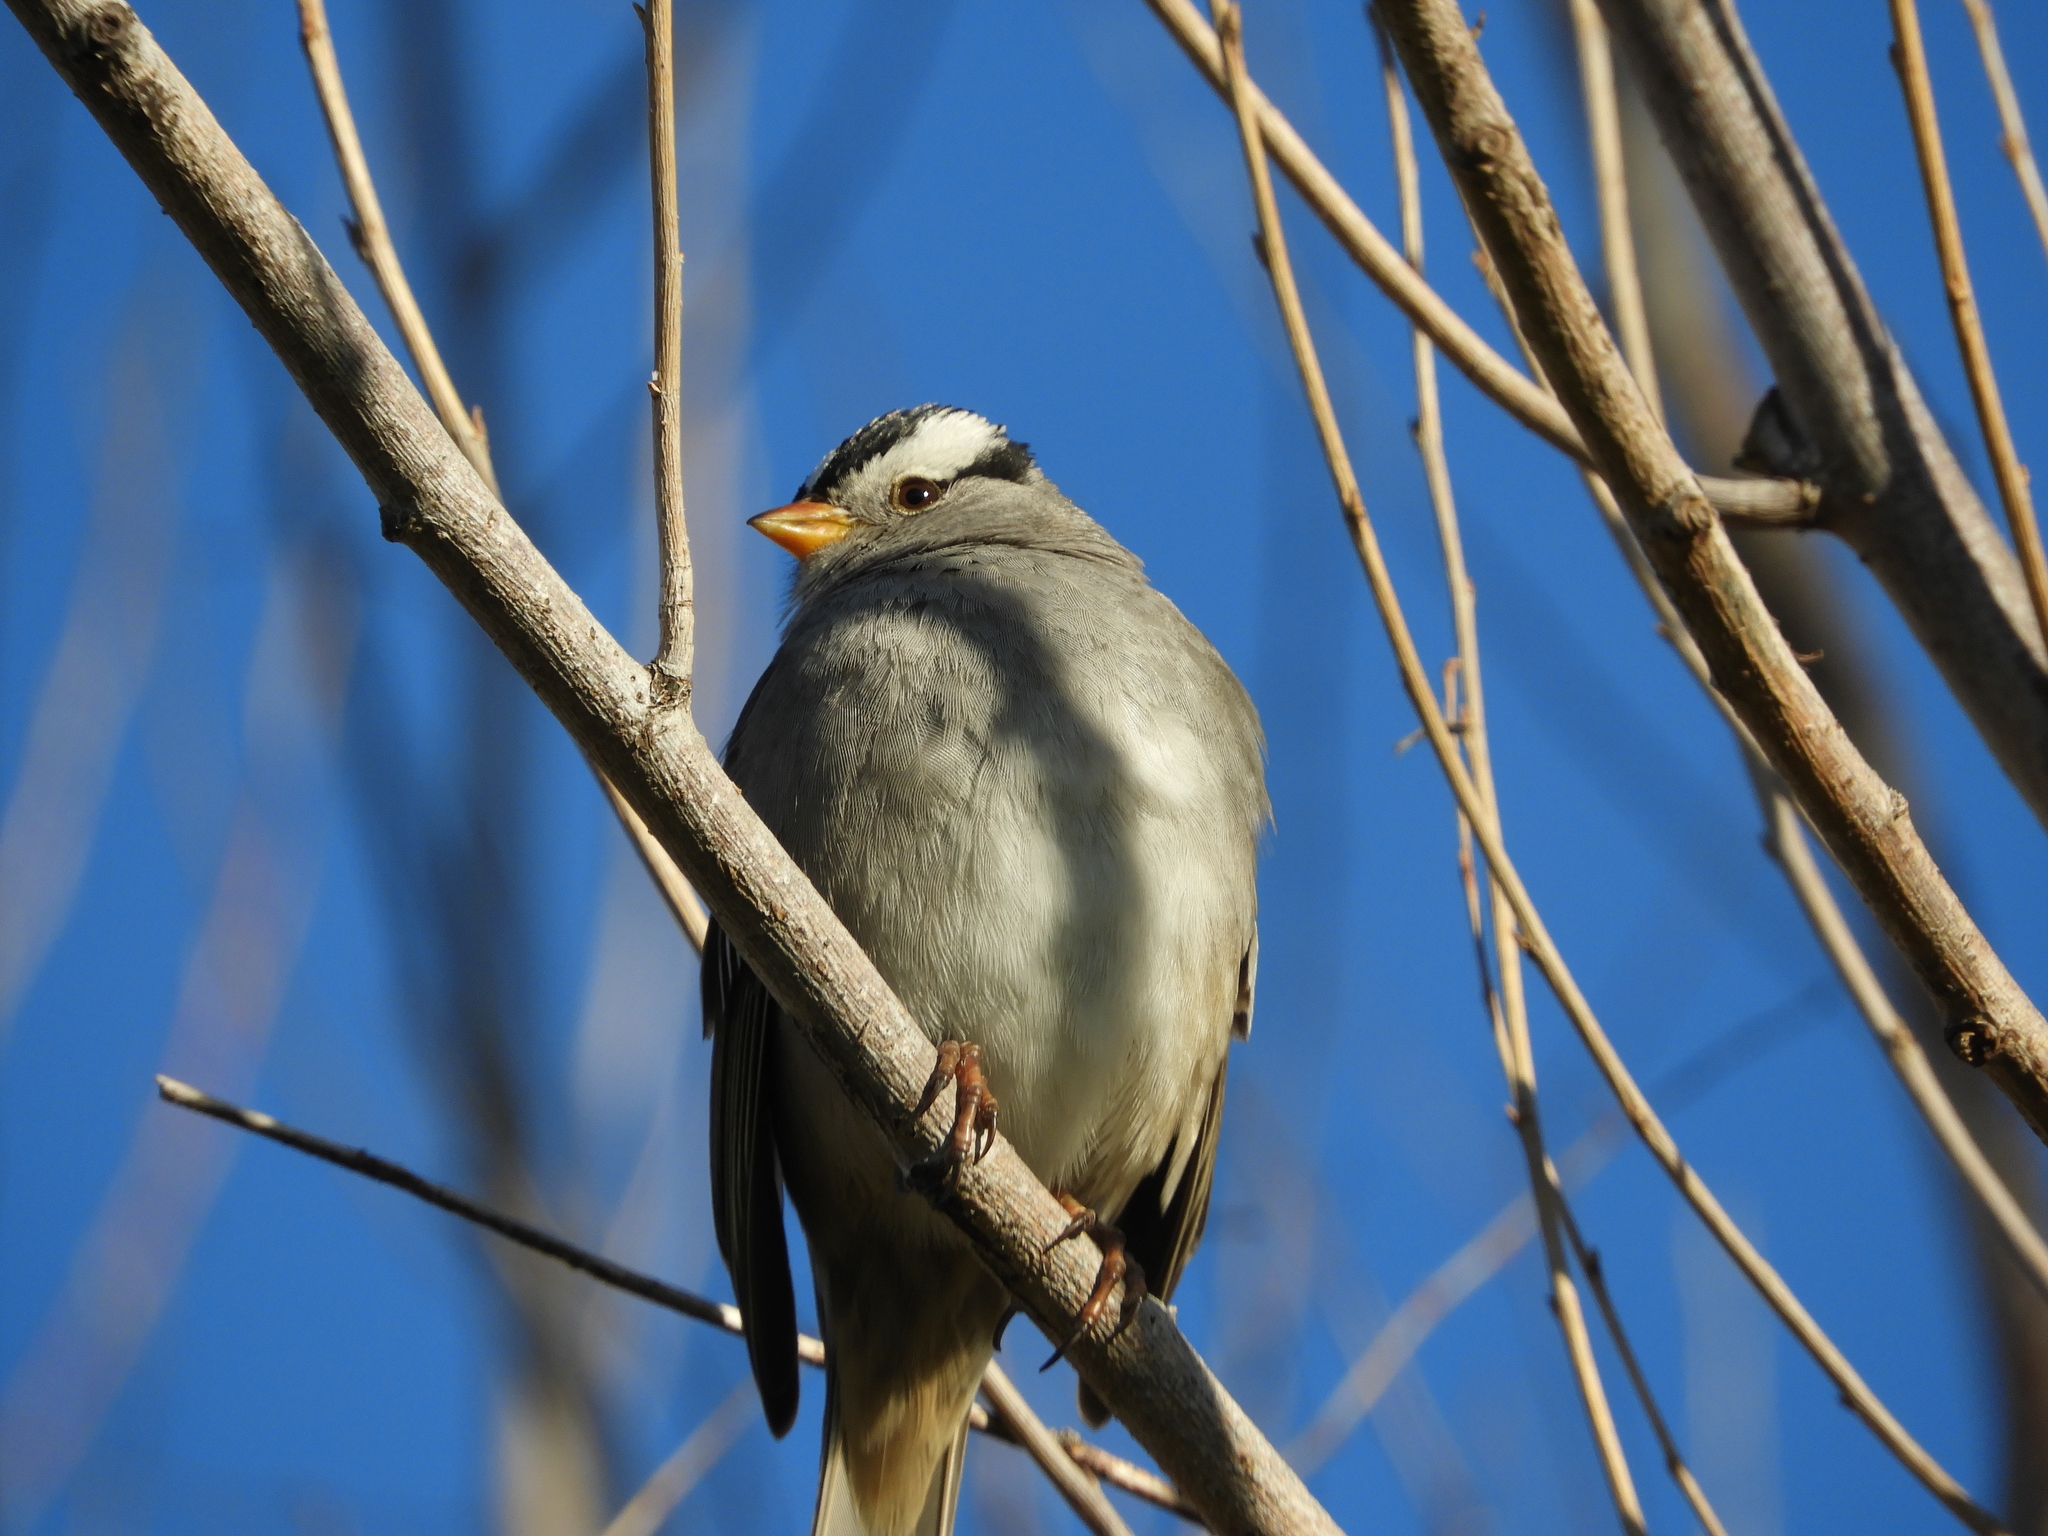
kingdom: Animalia
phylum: Chordata
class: Aves
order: Passeriformes
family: Passerellidae
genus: Zonotrichia
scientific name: Zonotrichia leucophrys
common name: White-crowned sparrow
